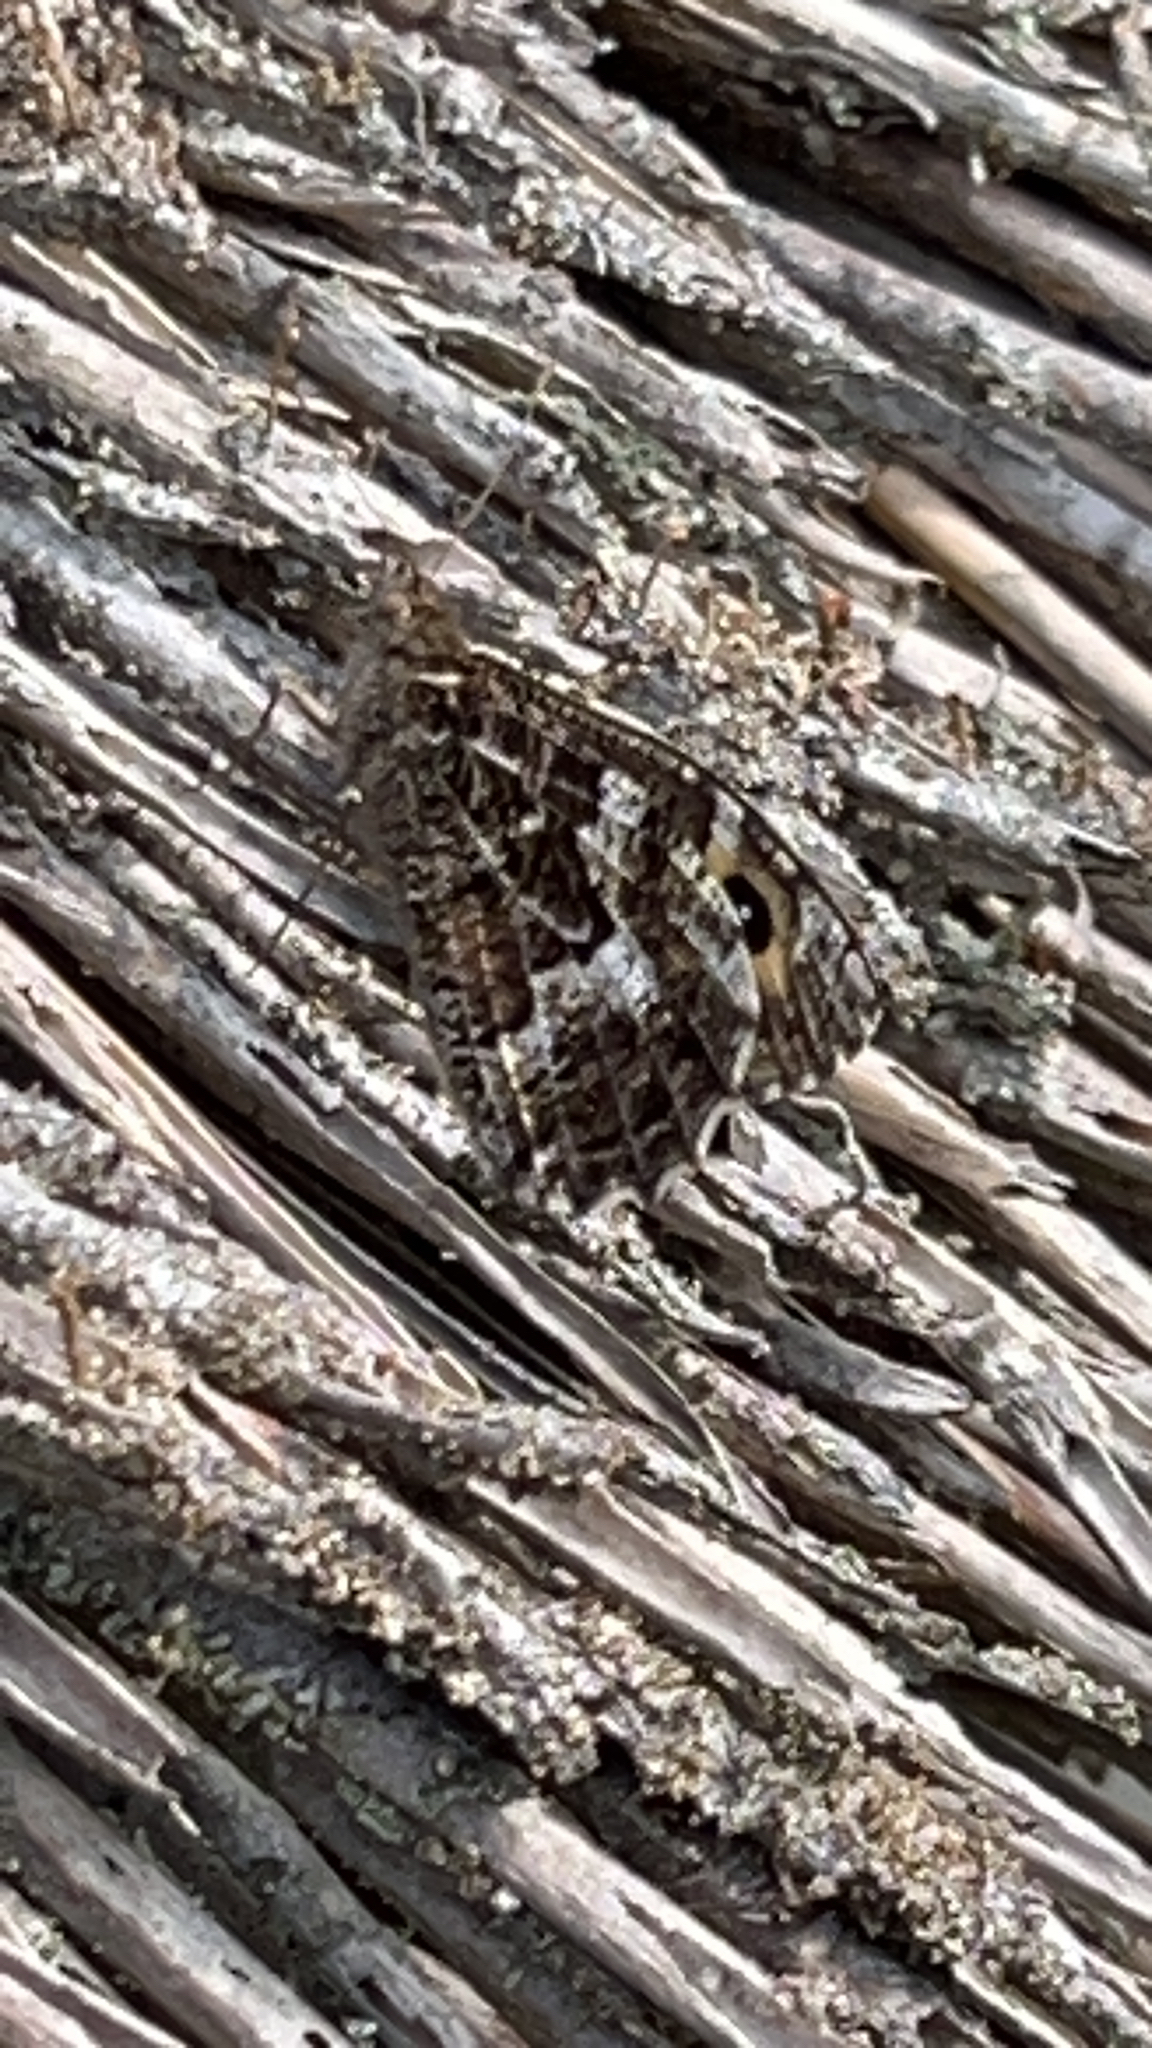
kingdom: Animalia
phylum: Arthropoda
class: Insecta
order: Lepidoptera
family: Nymphalidae
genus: Hipparchia
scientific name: Hipparchia semele
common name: Grayling
